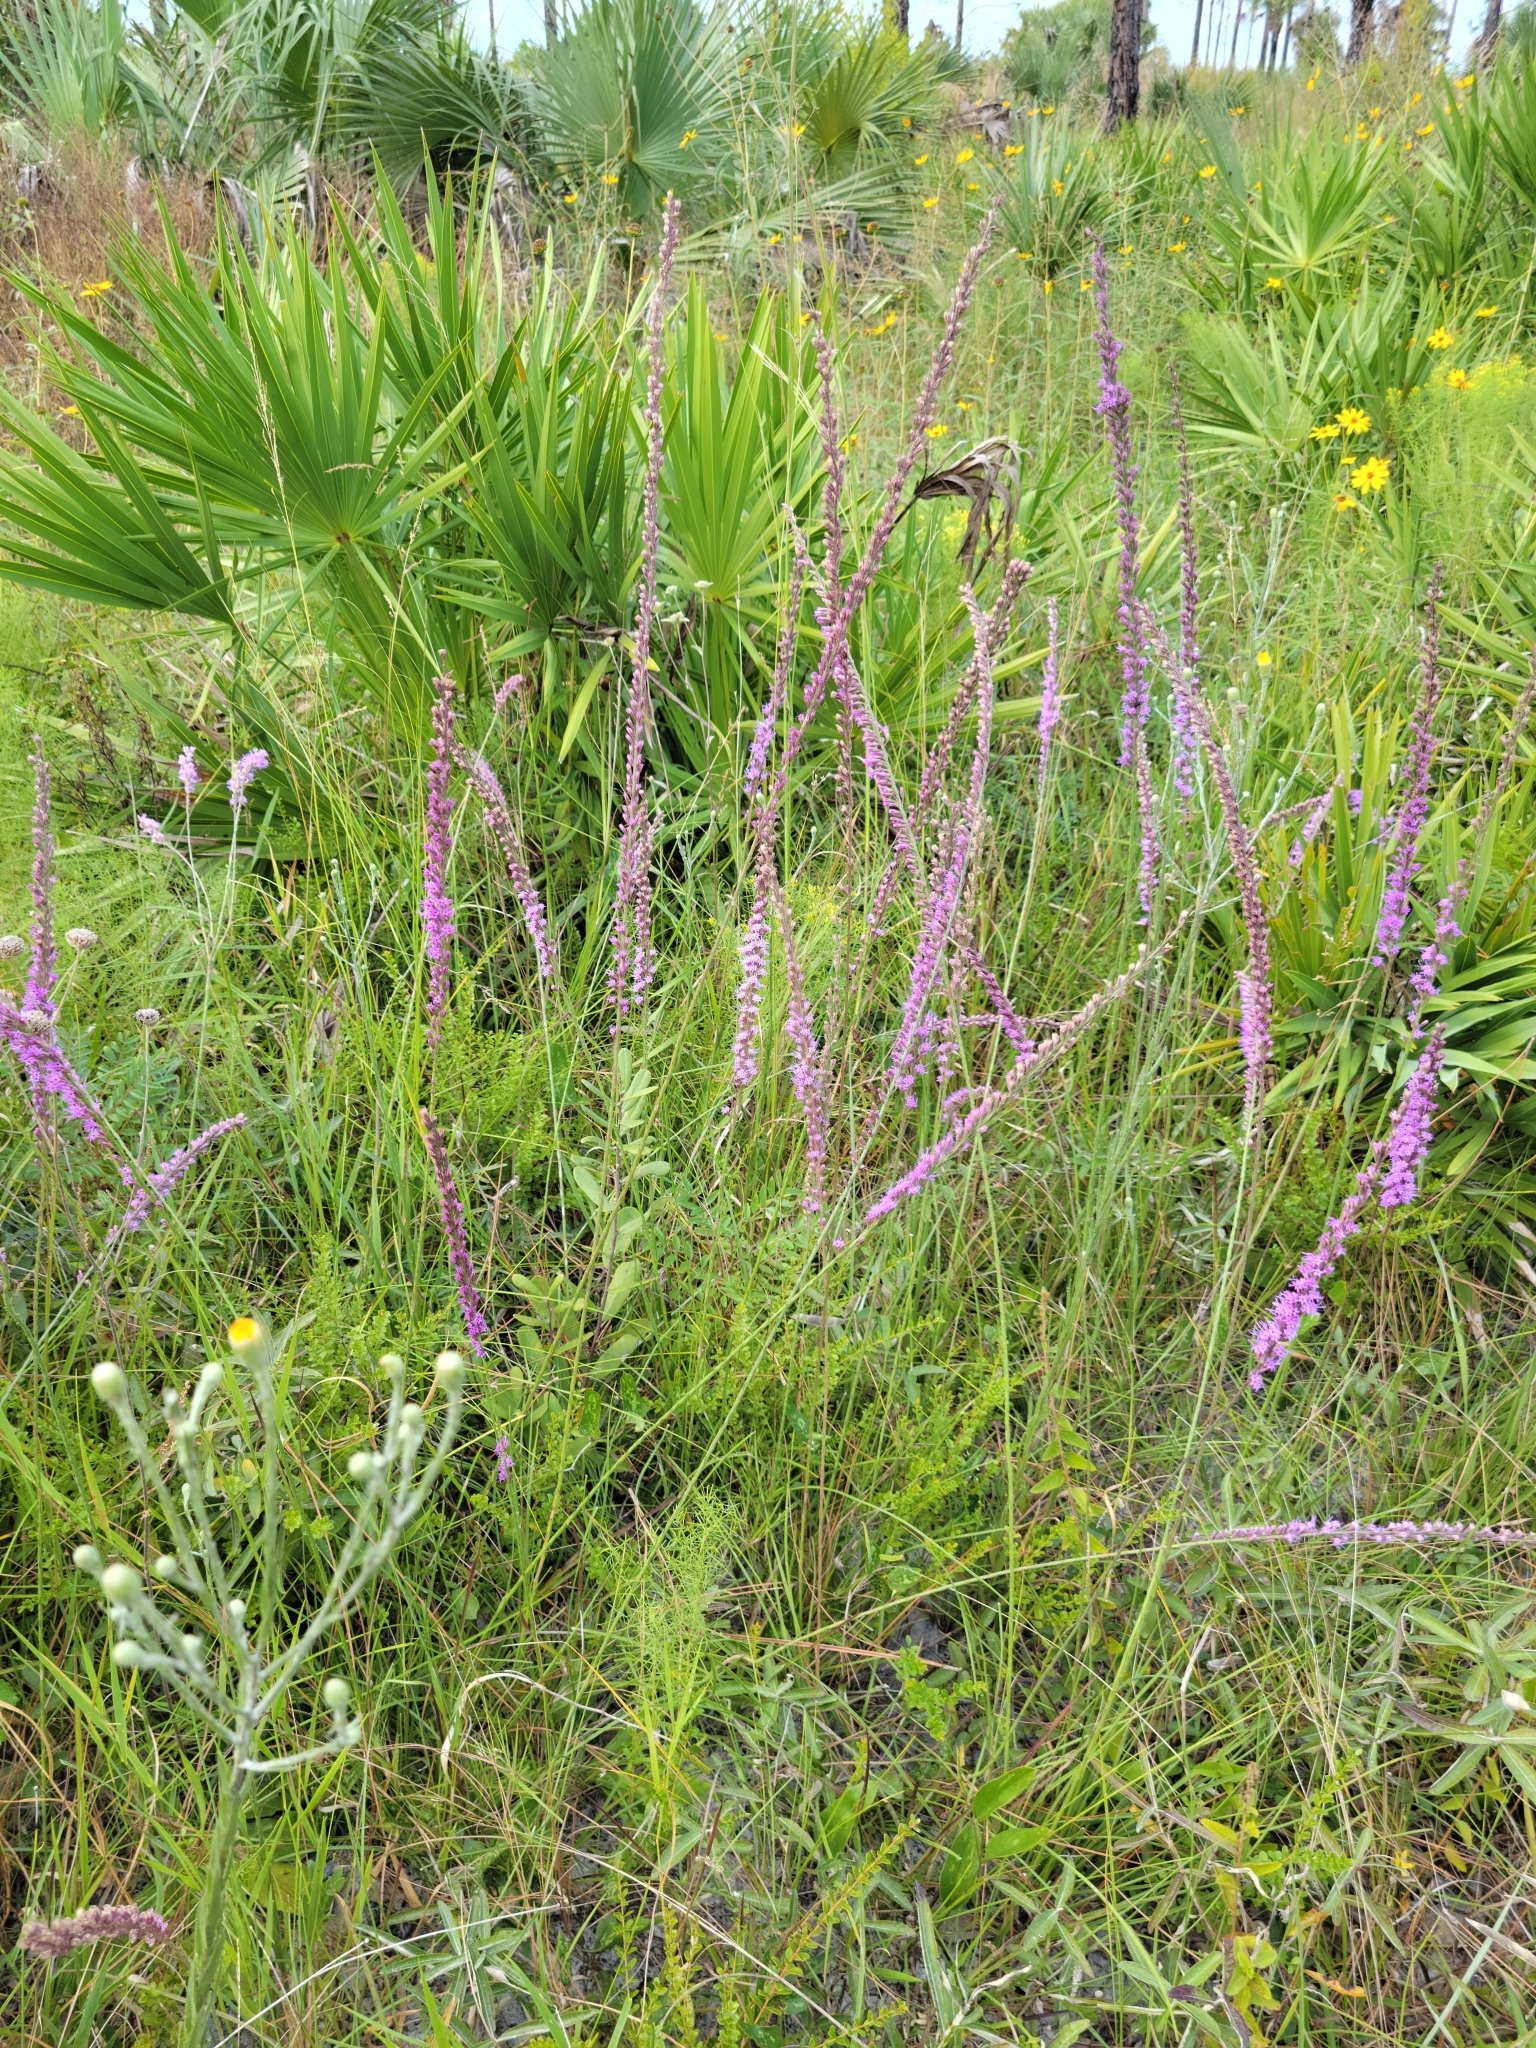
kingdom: Plantae
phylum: Tracheophyta
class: Magnoliopsida
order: Asterales
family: Asteraceae
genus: Liatris
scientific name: Liatris quadriflora
